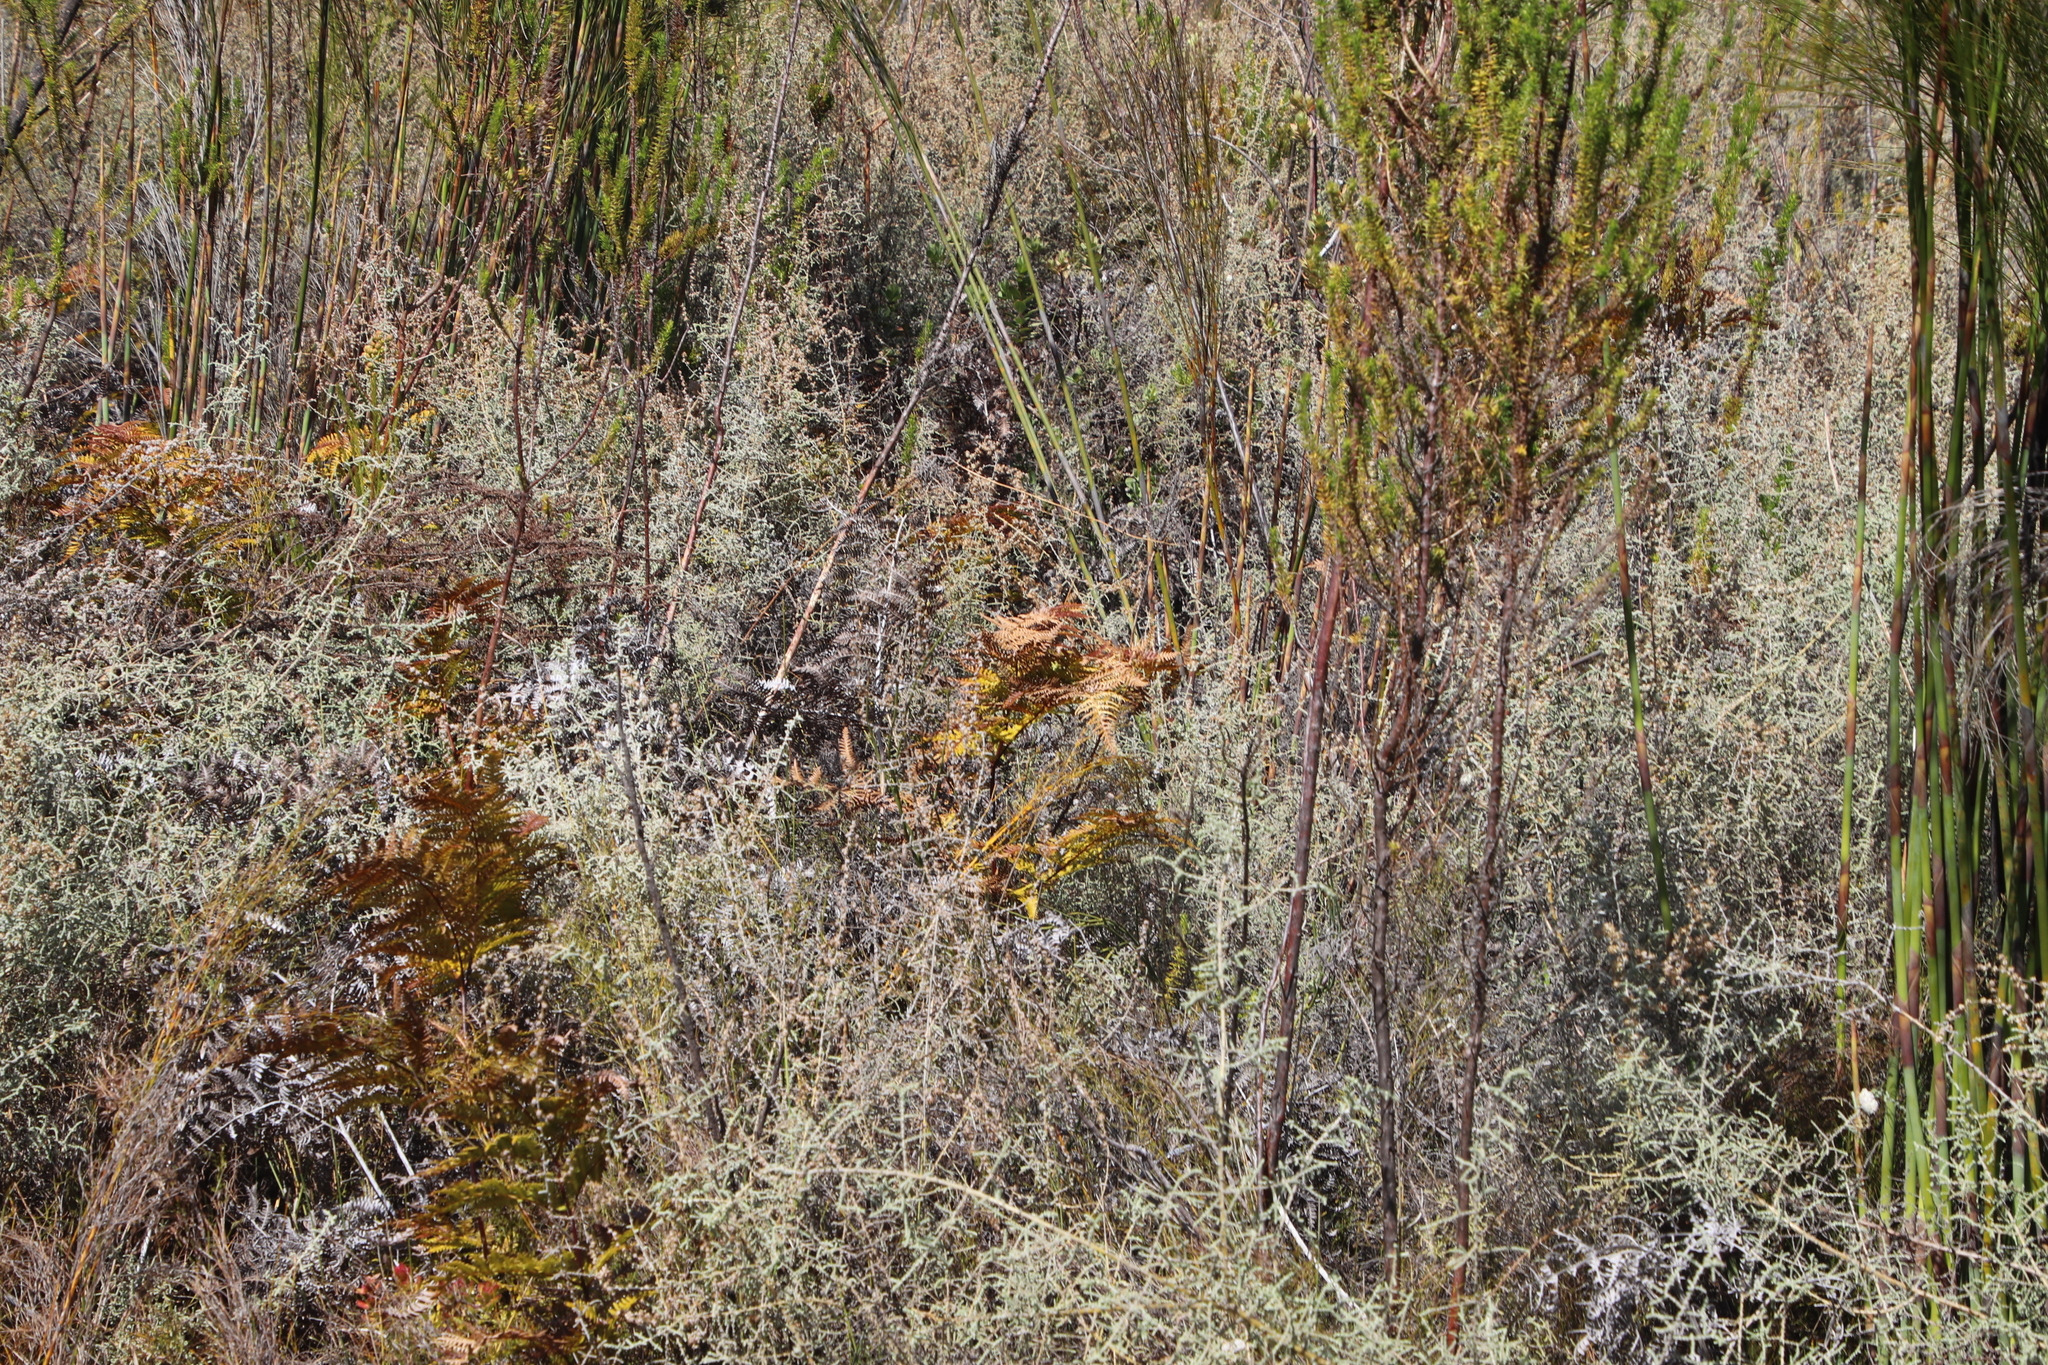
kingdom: Plantae
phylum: Tracheophyta
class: Polypodiopsida
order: Polypodiales
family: Dennstaedtiaceae
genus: Pteridium
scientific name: Pteridium aquilinum
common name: Bracken
